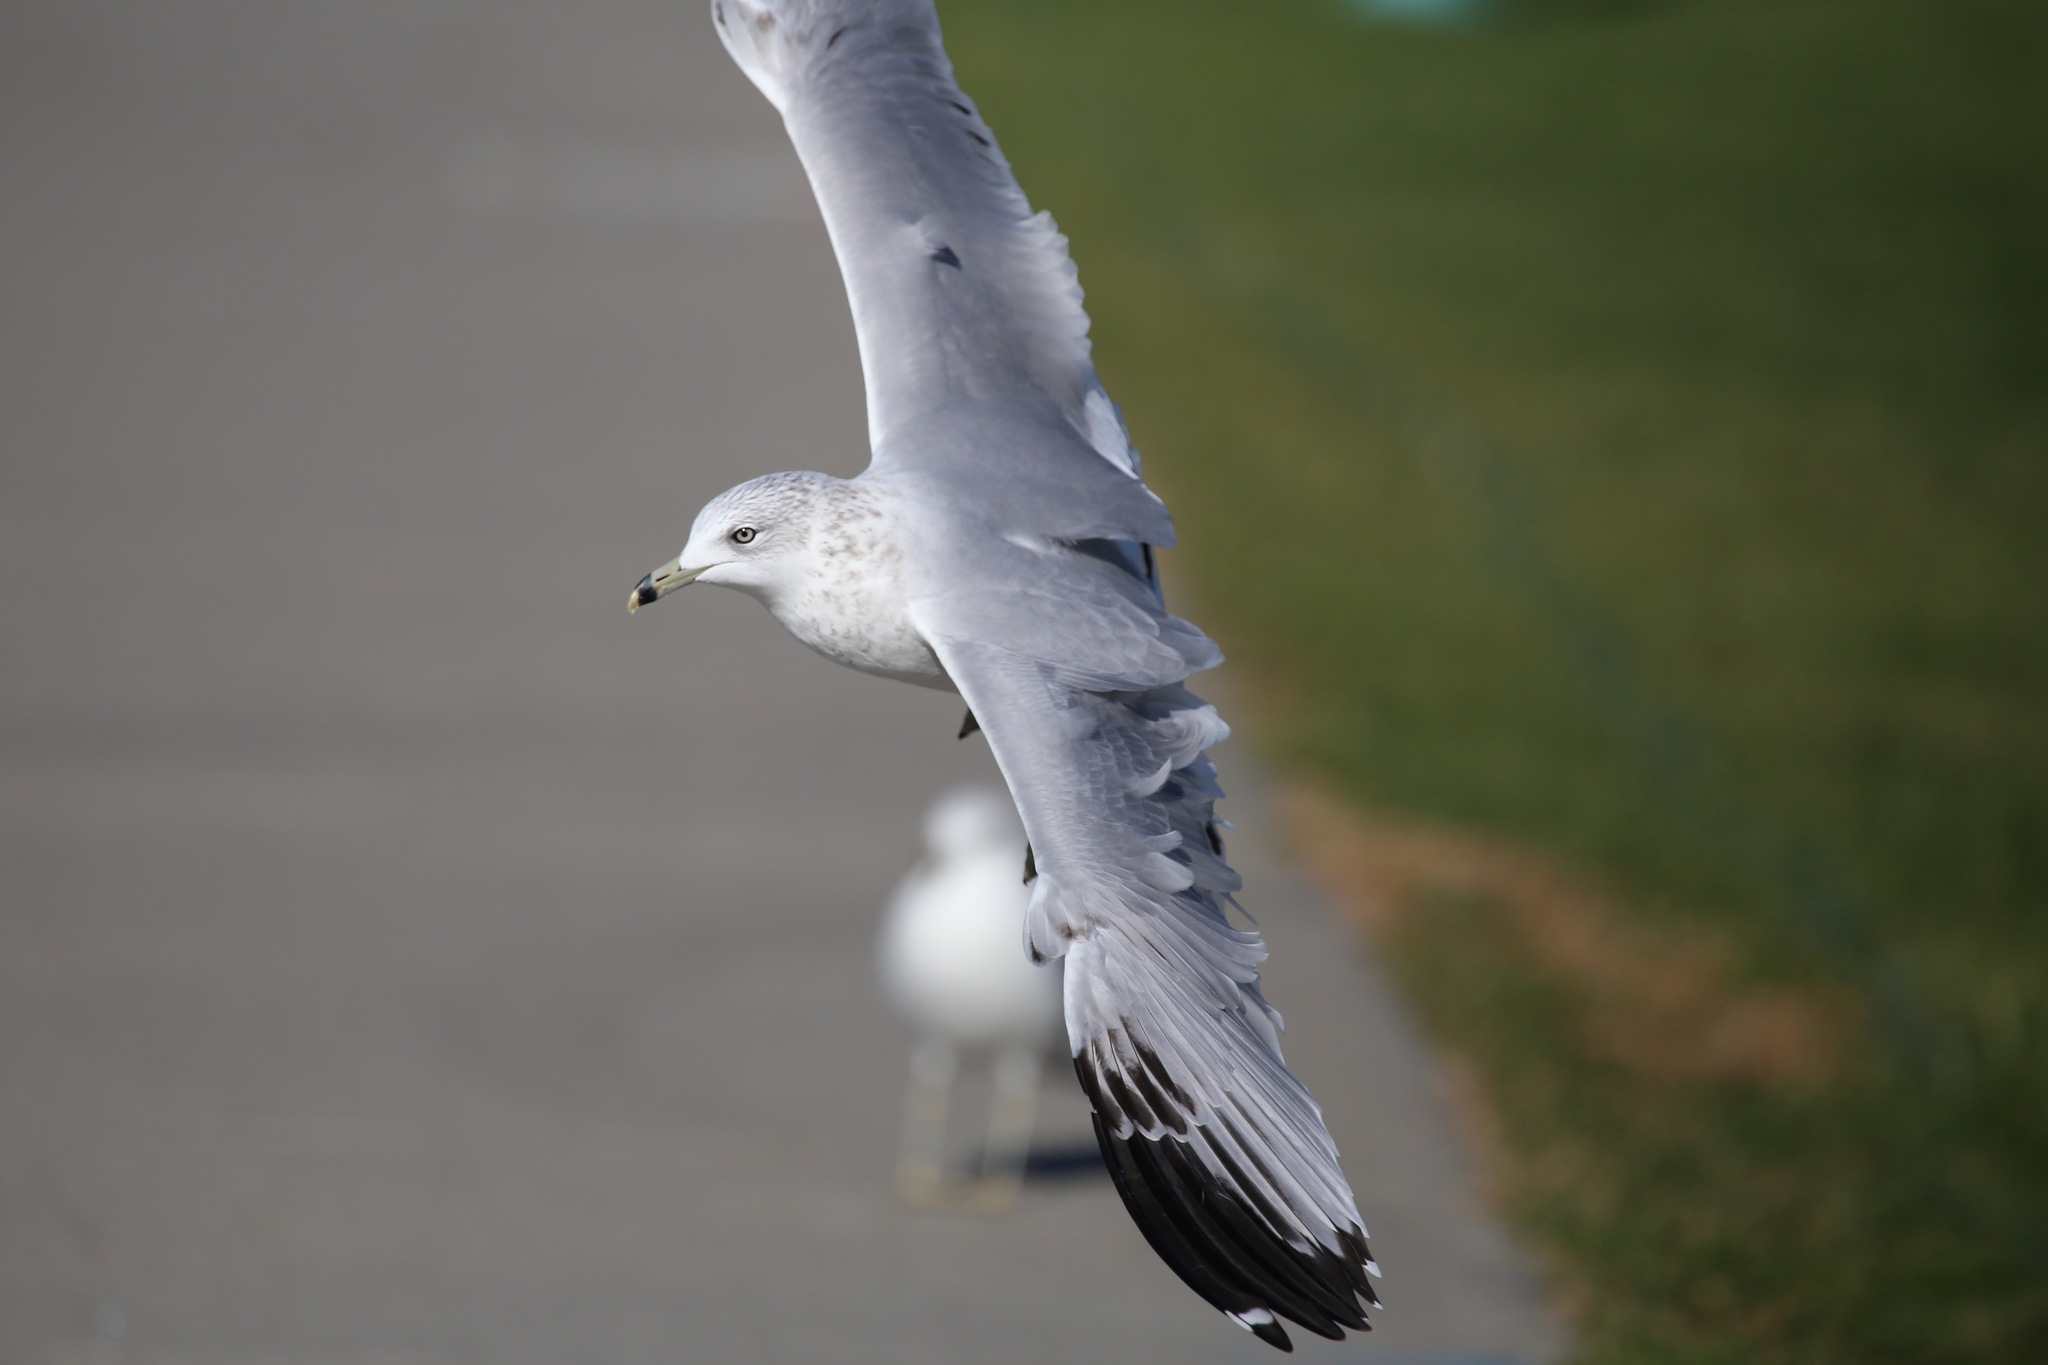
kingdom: Animalia
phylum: Chordata
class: Aves
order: Charadriiformes
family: Laridae
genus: Larus
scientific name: Larus delawarensis
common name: Ring-billed gull
